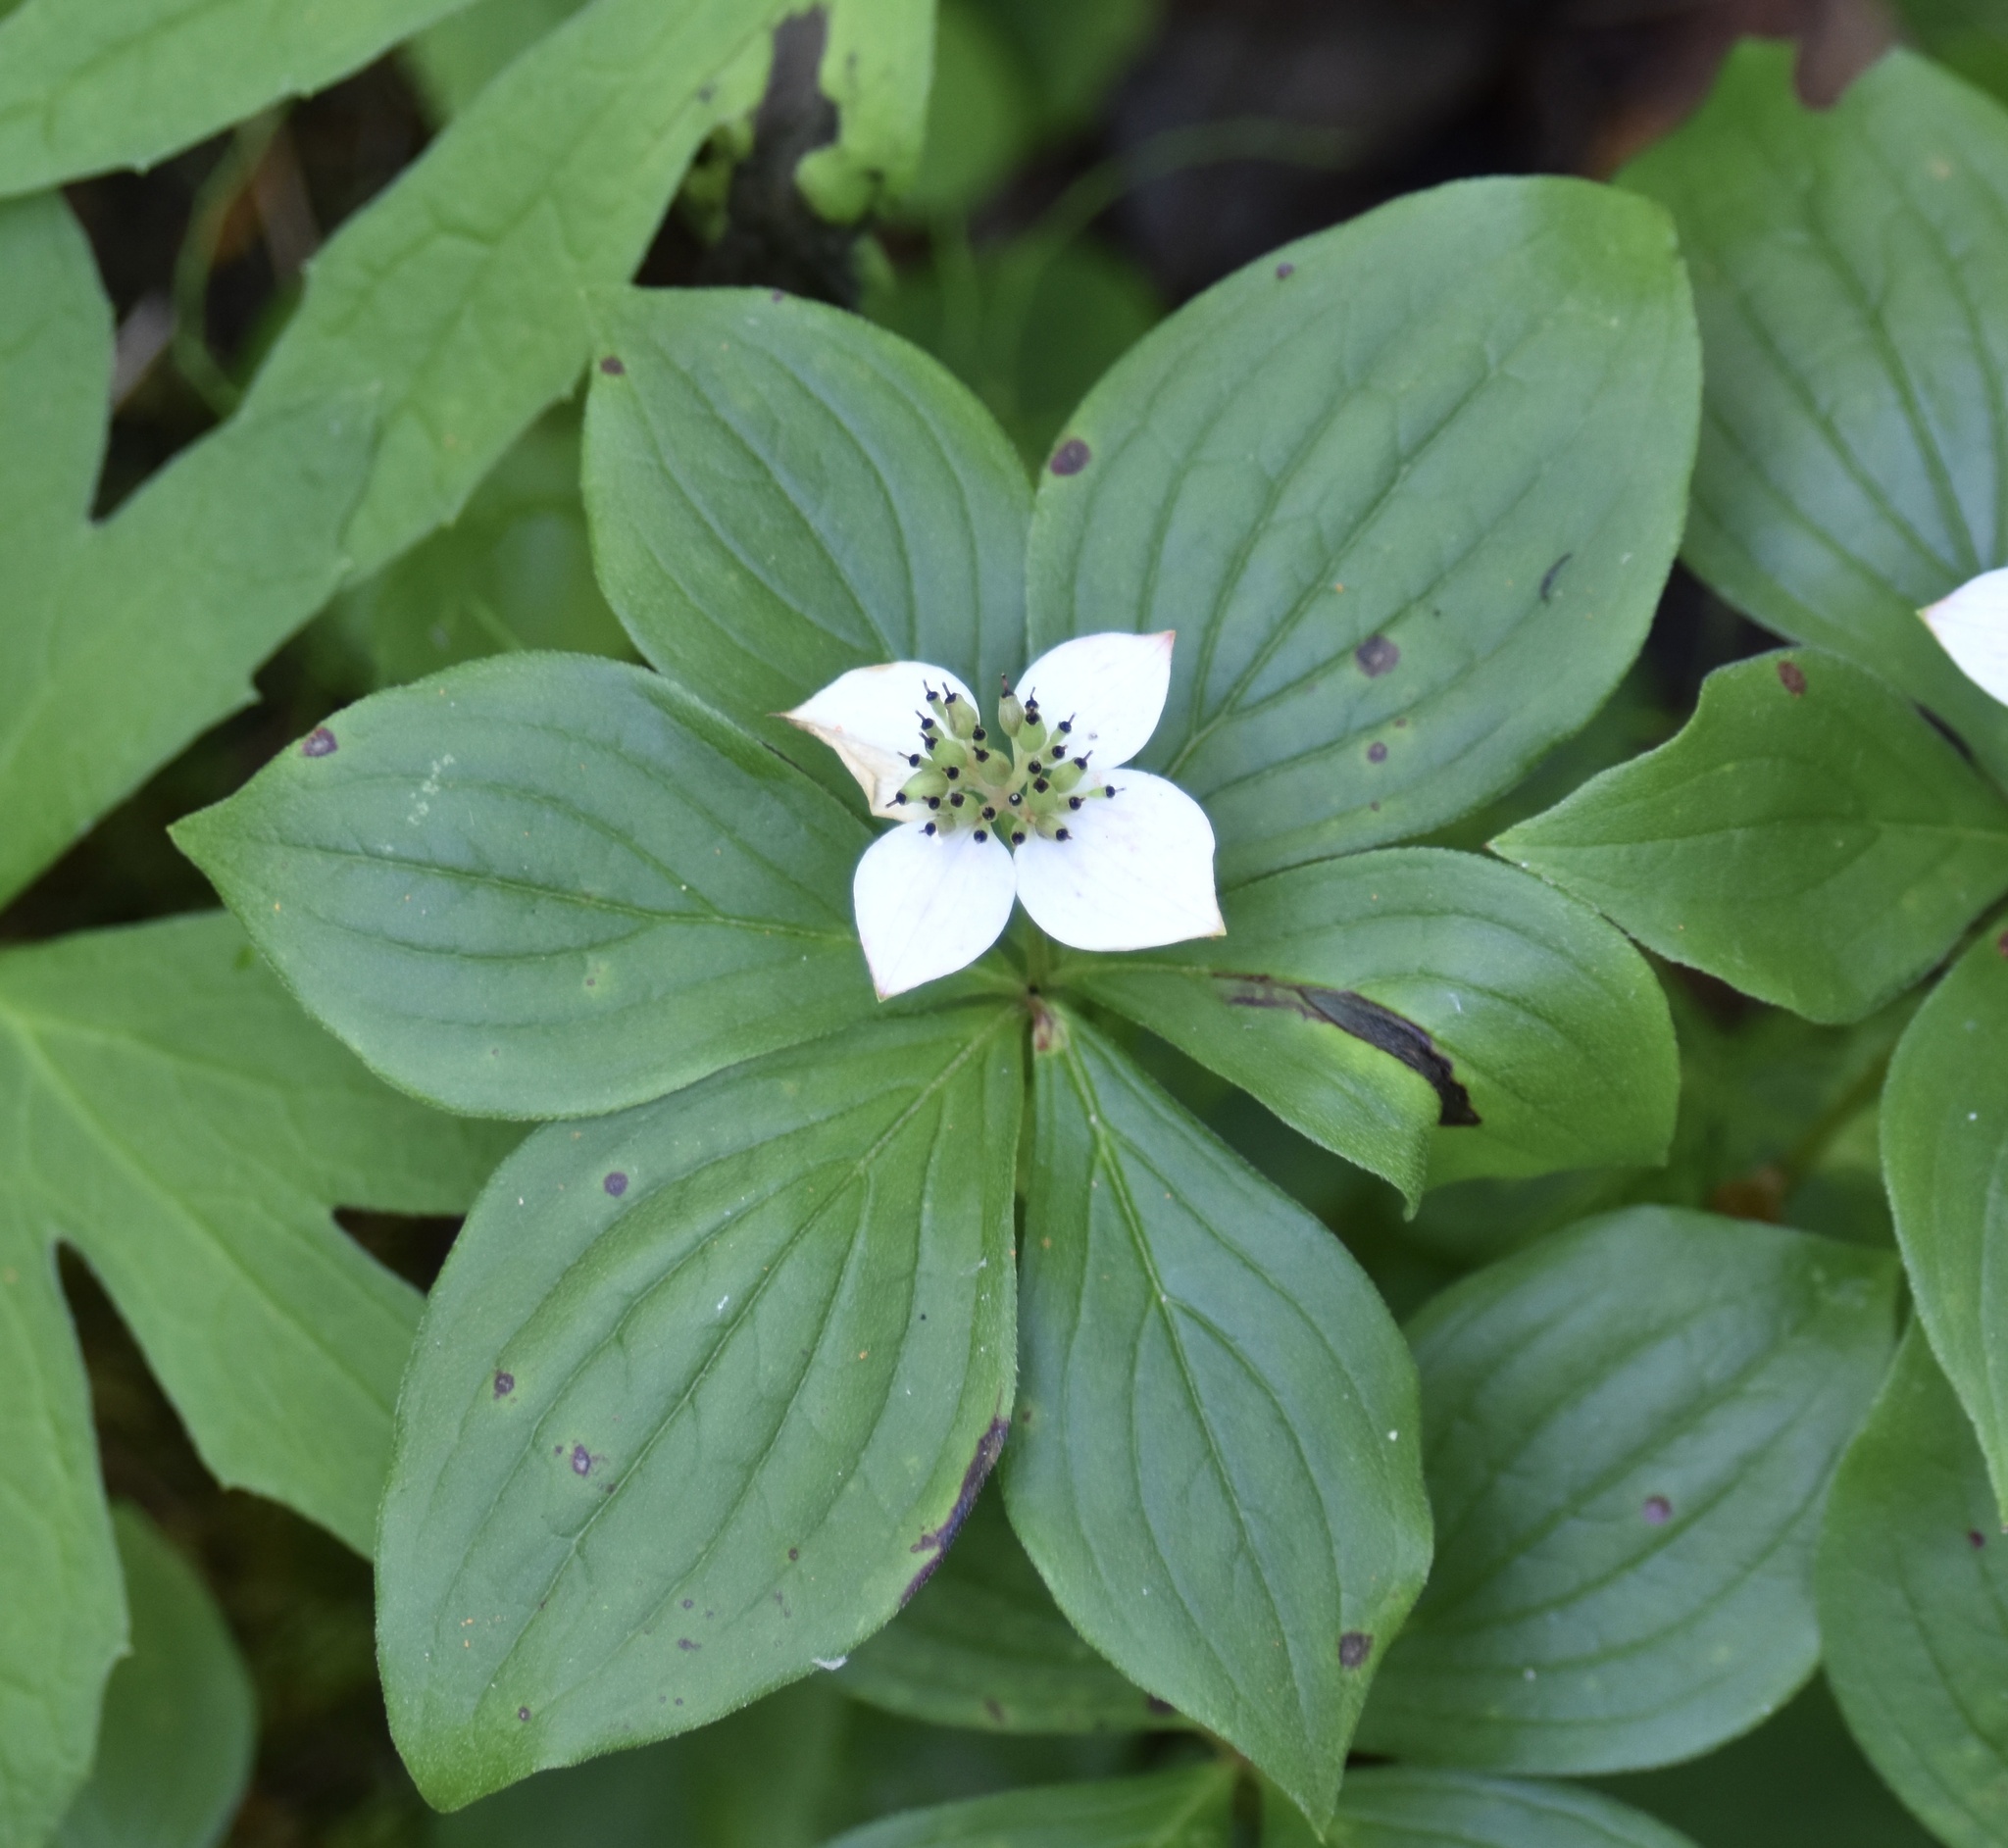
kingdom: Plantae
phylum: Tracheophyta
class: Magnoliopsida
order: Cornales
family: Cornaceae
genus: Cornus
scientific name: Cornus canadensis
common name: Creeping dogwood
